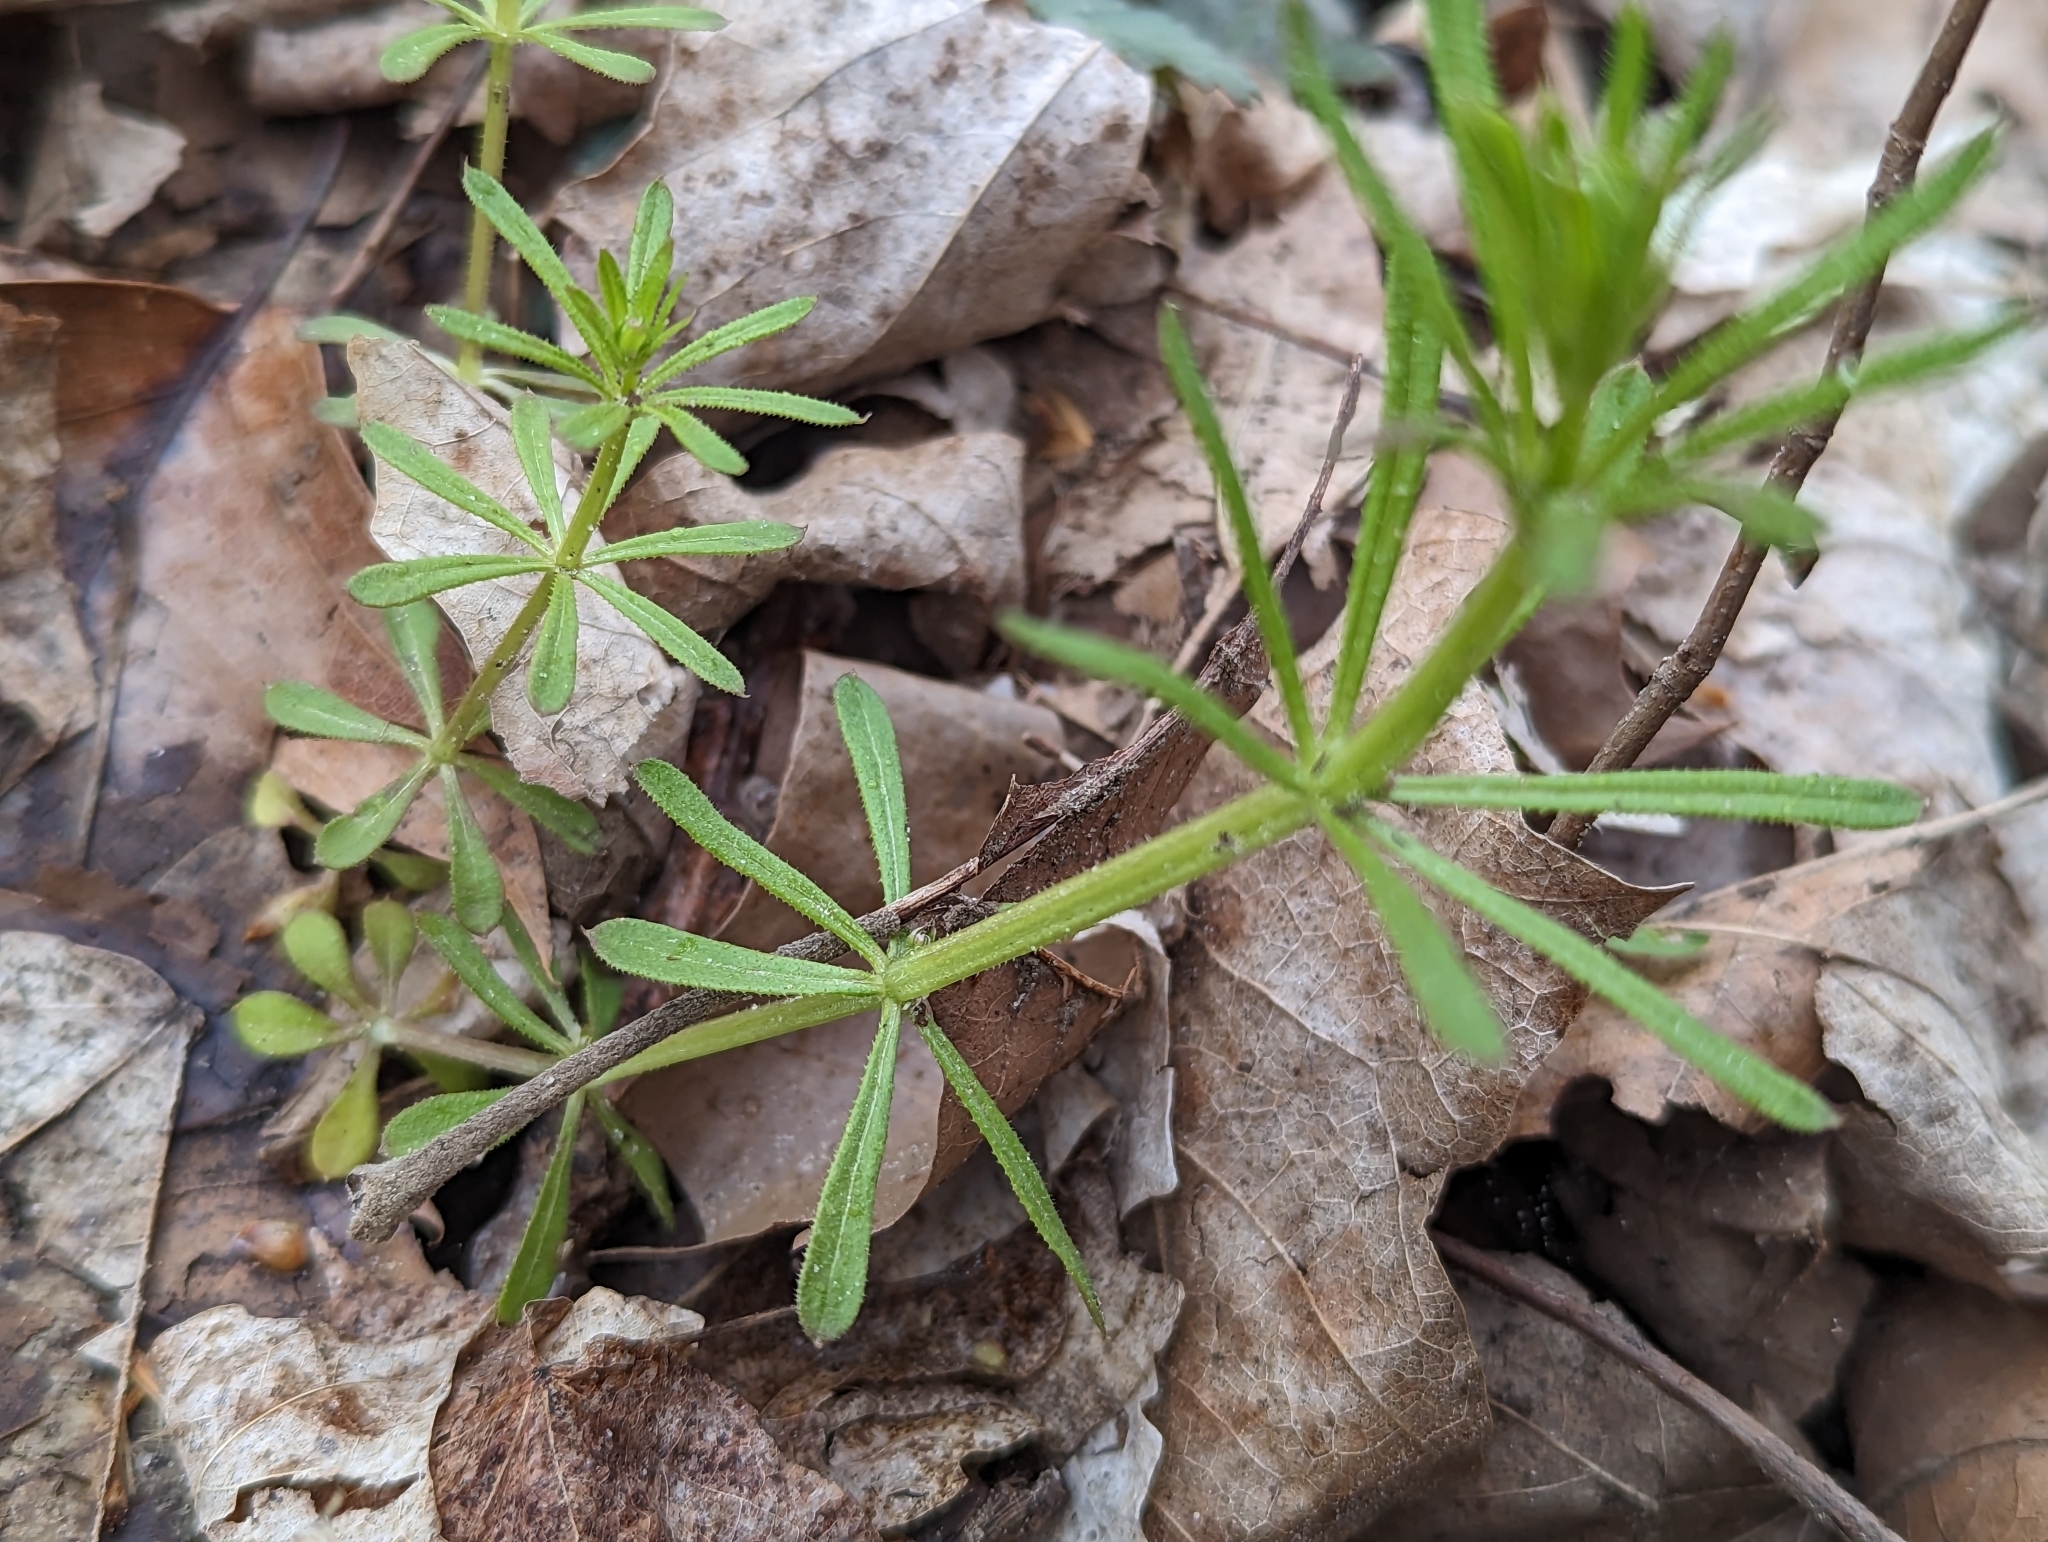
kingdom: Plantae
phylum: Tracheophyta
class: Magnoliopsida
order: Gentianales
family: Rubiaceae
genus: Galium
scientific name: Galium aparine
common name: Cleavers
